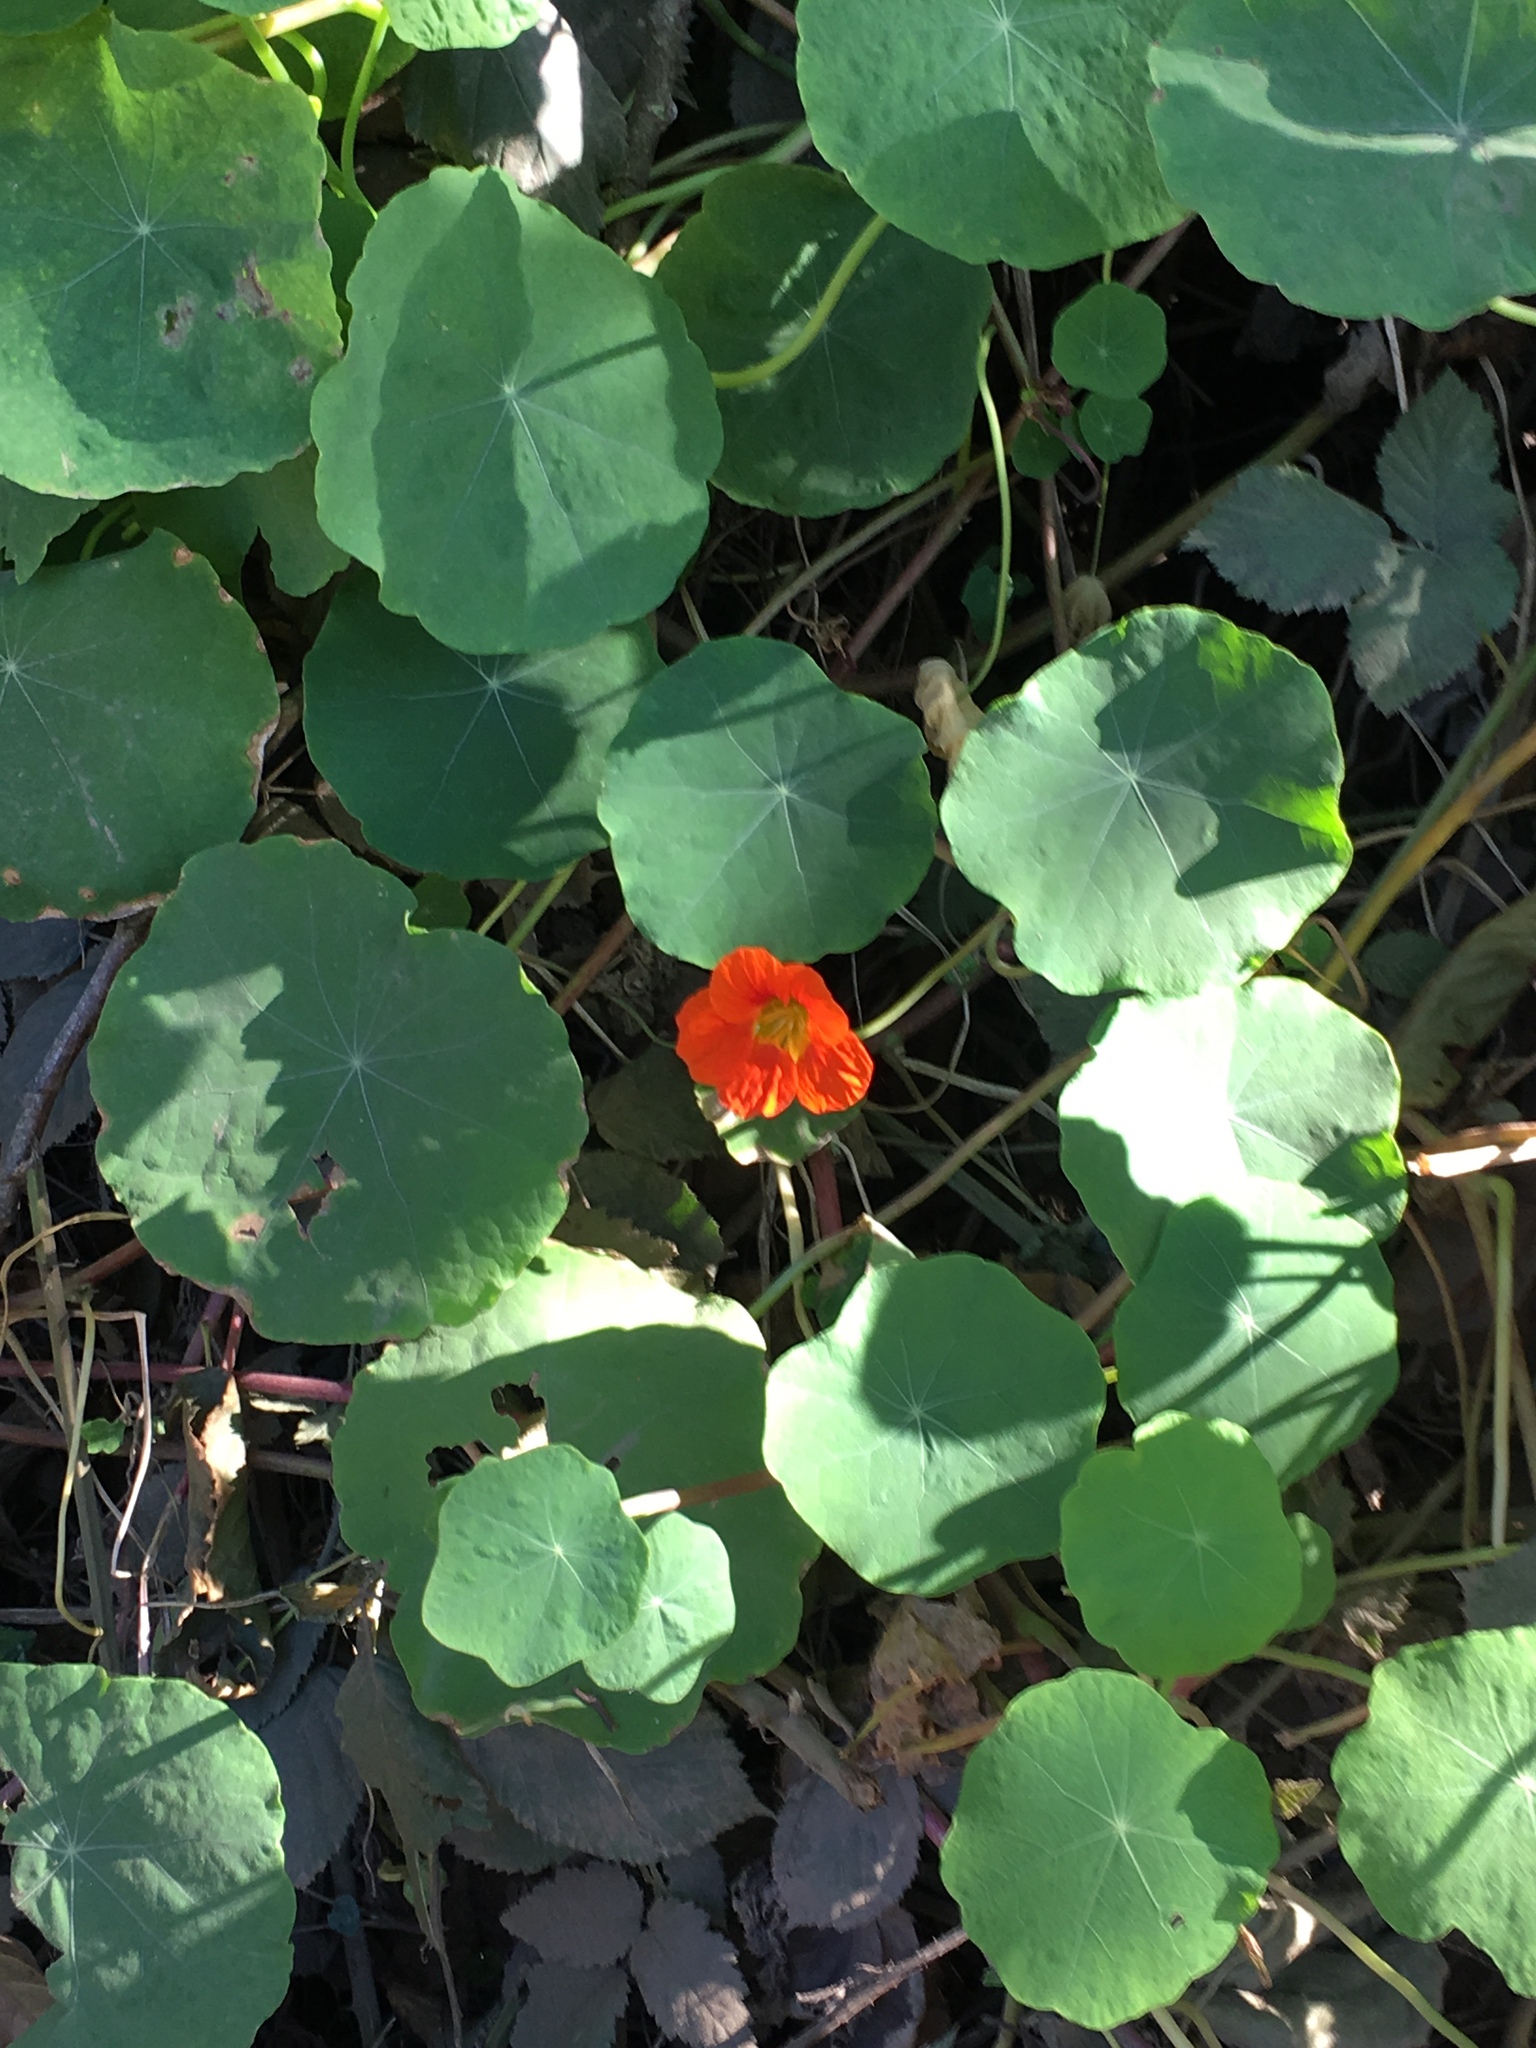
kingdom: Plantae
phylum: Tracheophyta
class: Magnoliopsida
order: Brassicales
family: Tropaeolaceae
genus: Tropaeolum
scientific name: Tropaeolum majus
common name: Nasturtium
